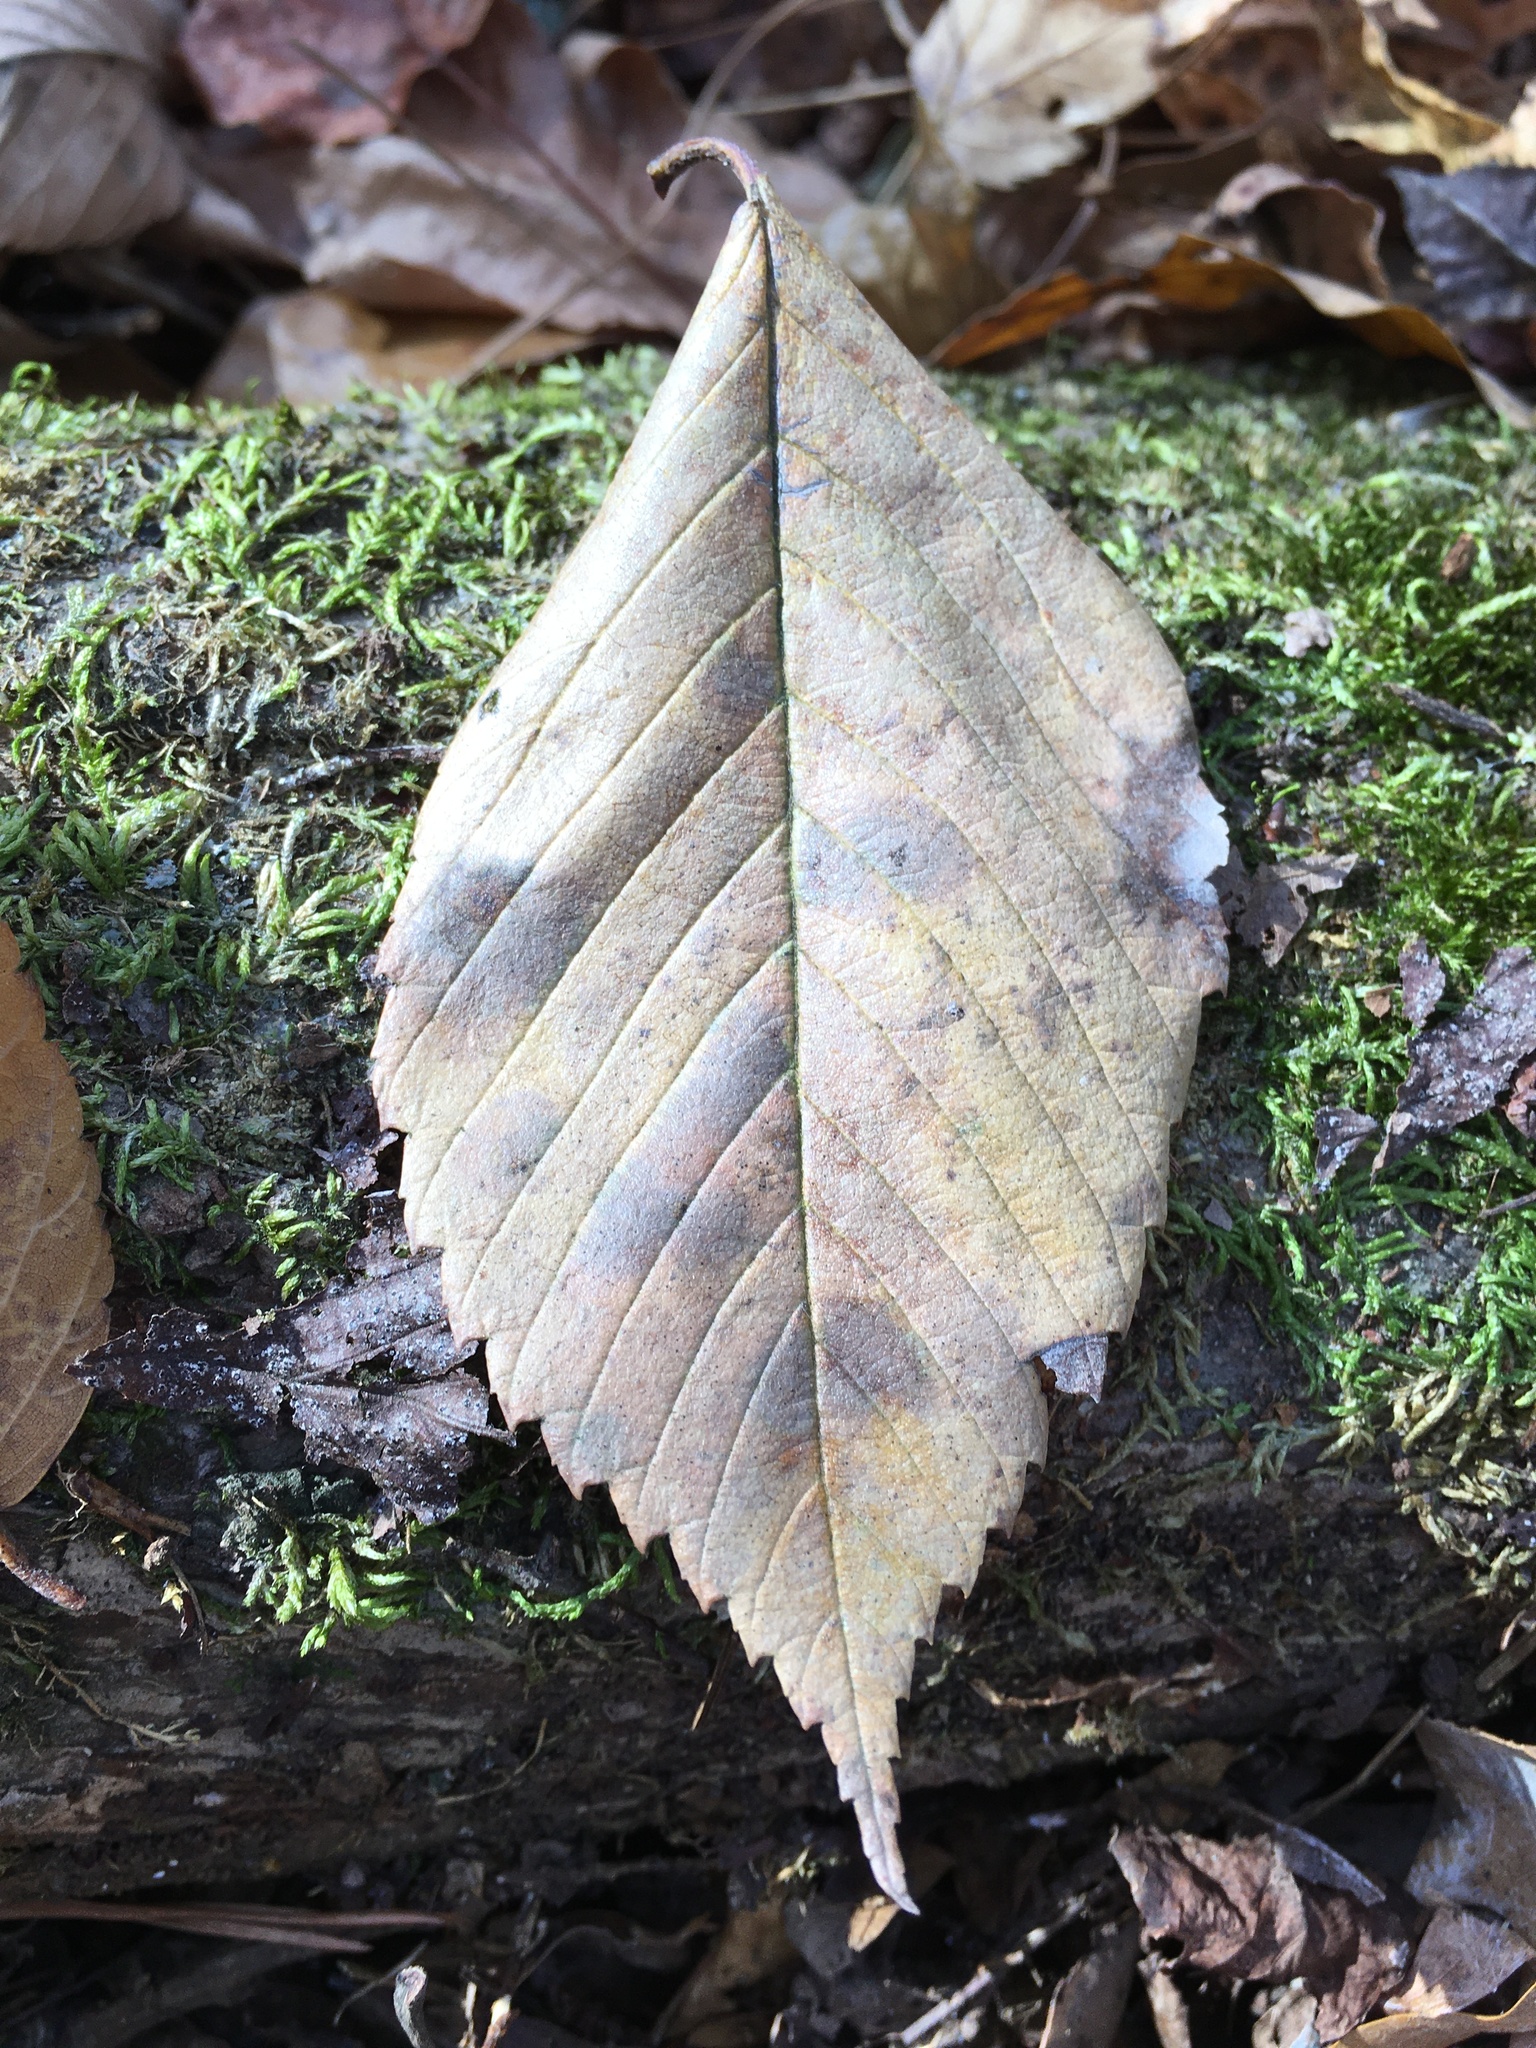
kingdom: Plantae
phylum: Tracheophyta
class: Magnoliopsida
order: Rosales
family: Ulmaceae
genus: Ulmus
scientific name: Ulmus americana
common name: American elm
